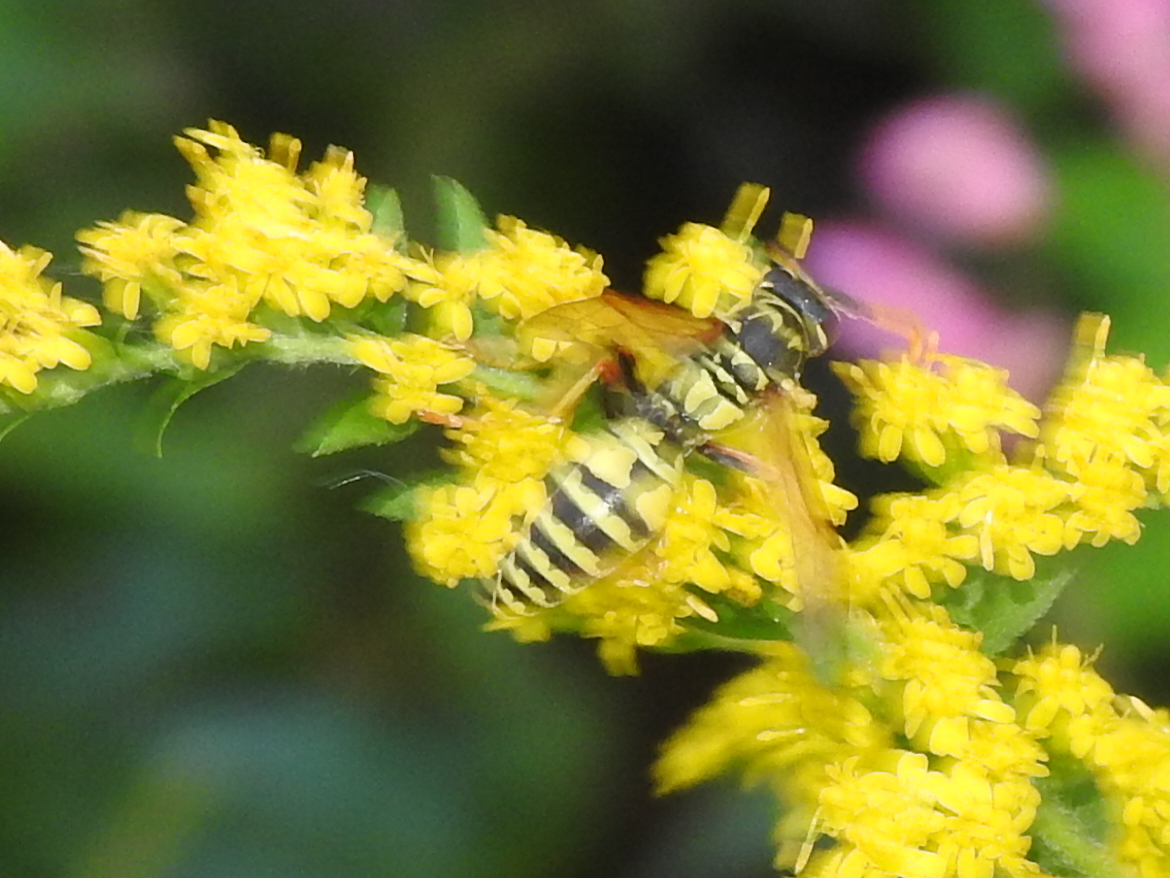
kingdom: Animalia
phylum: Arthropoda
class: Insecta
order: Hymenoptera
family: Eumenidae
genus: Polistes
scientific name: Polistes dominula
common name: Paper wasp
